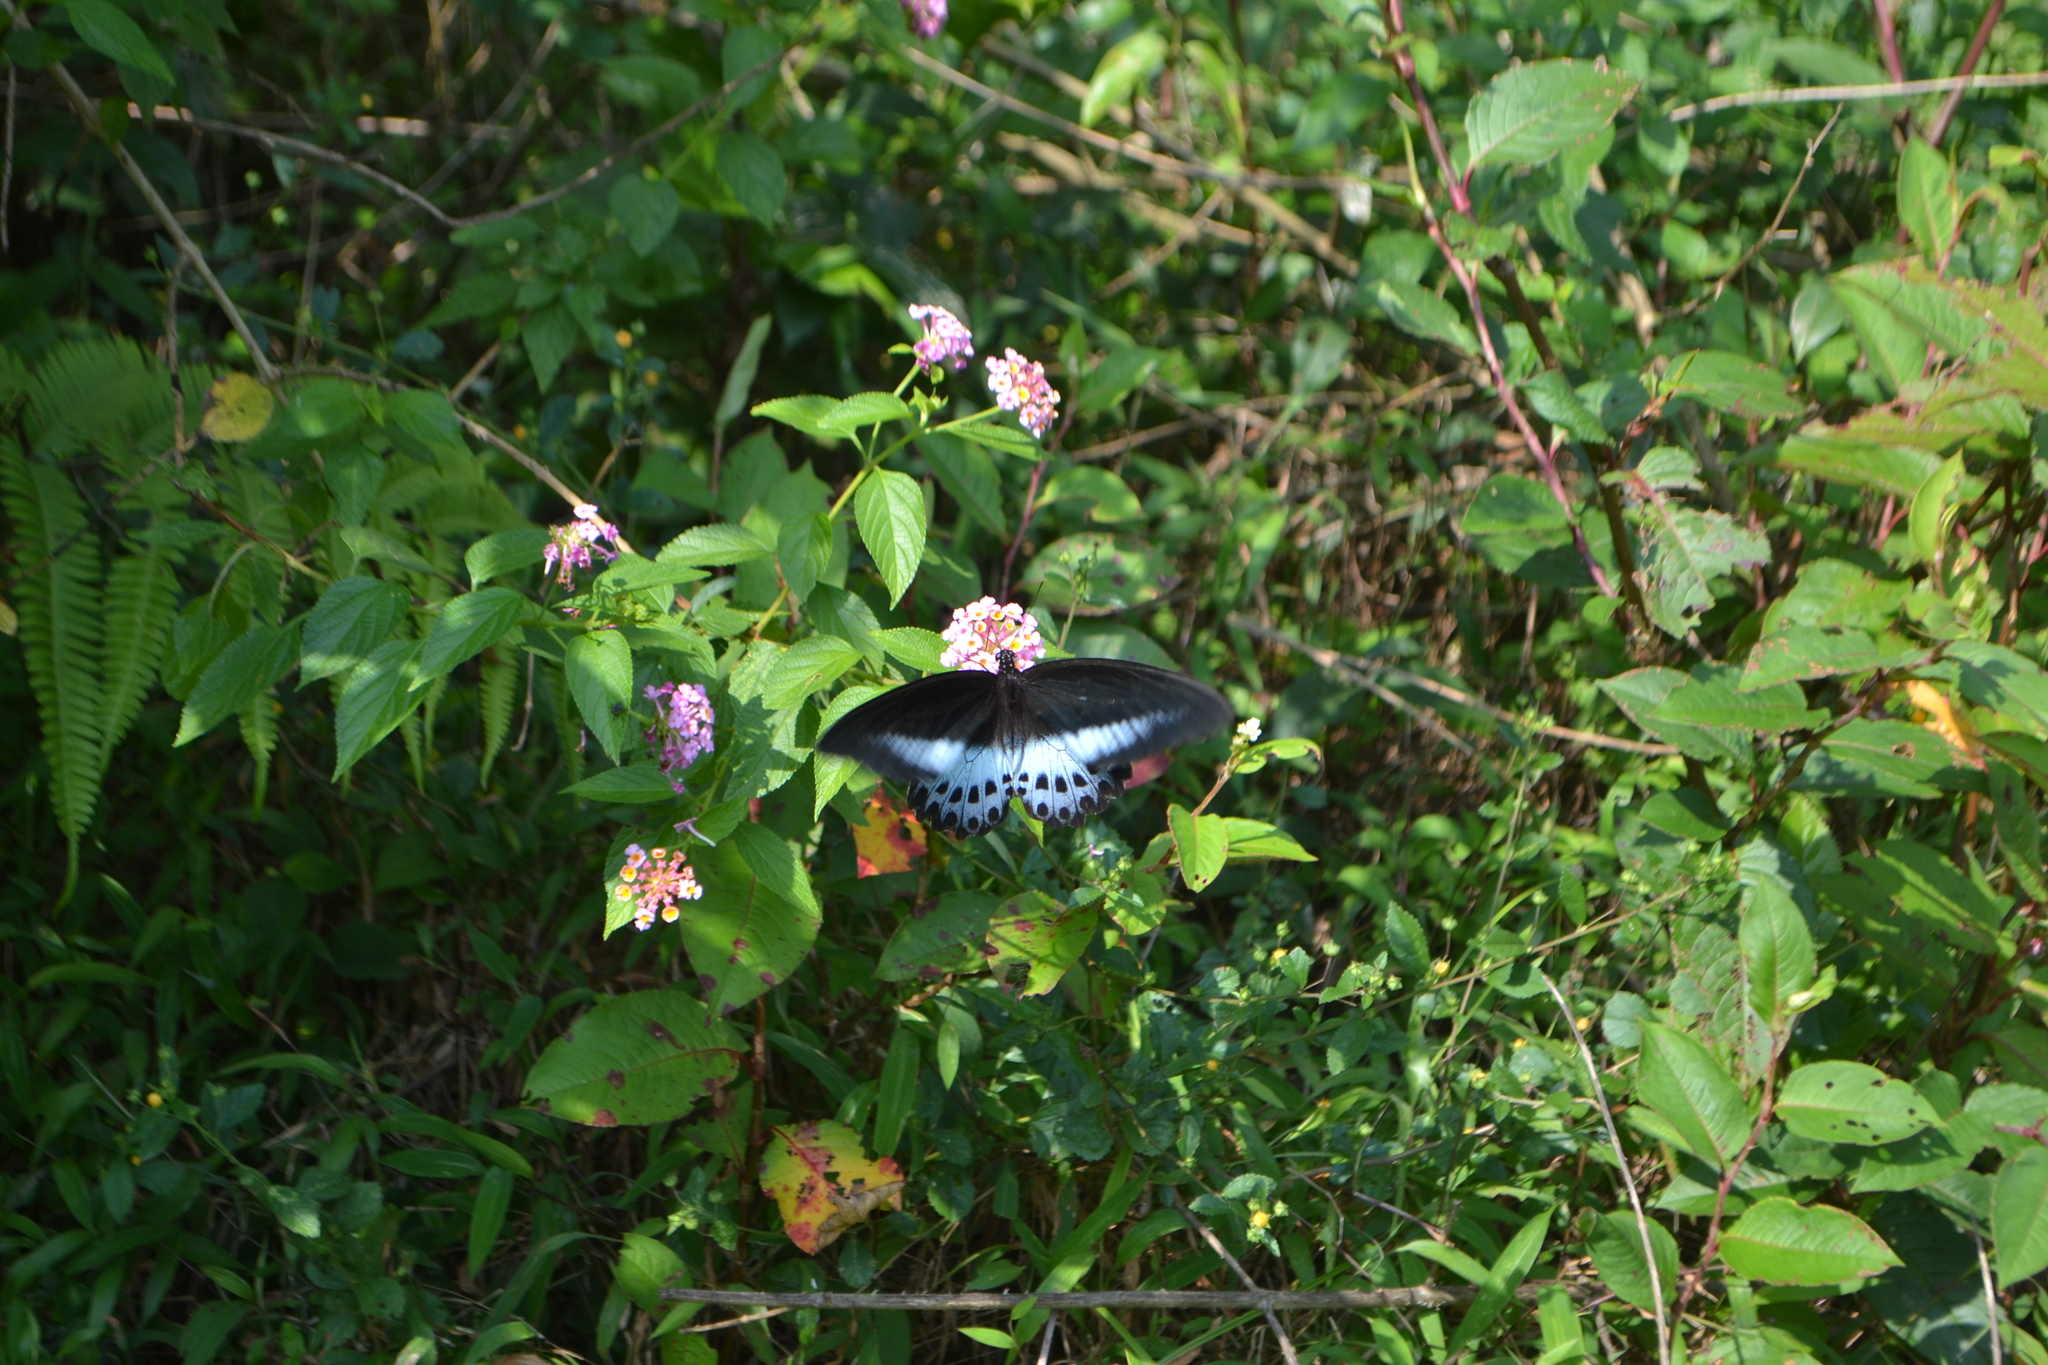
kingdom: Animalia
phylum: Arthropoda
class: Insecta
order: Lepidoptera
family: Papilionidae
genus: Papilio
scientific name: Papilio memnon
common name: Great mormon
